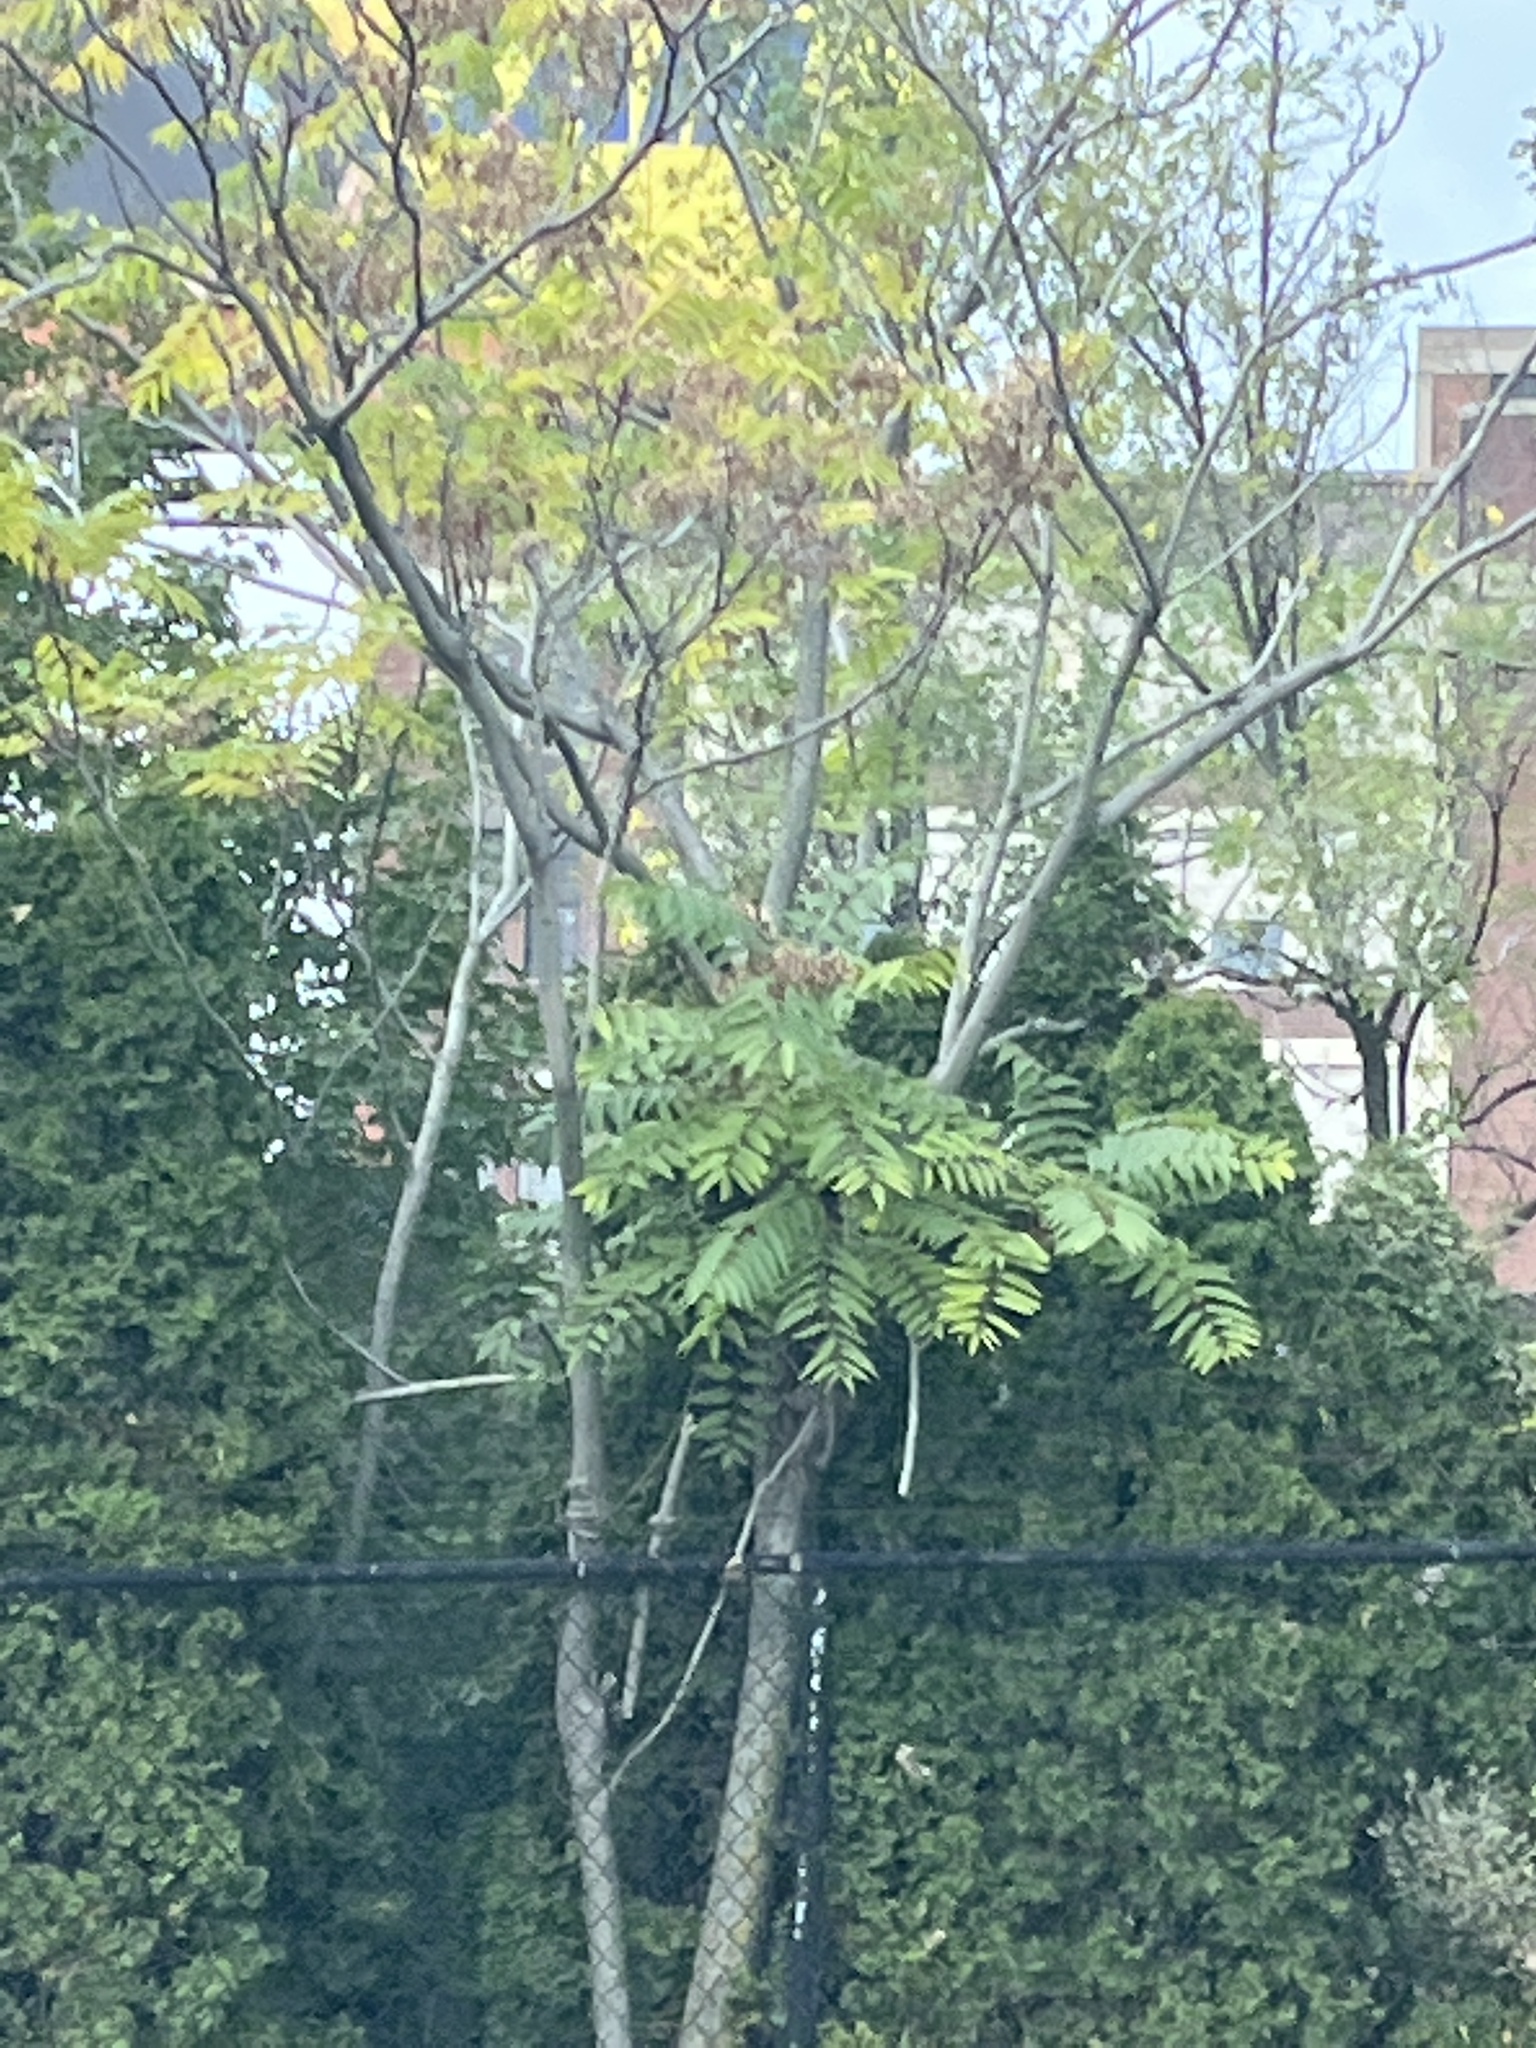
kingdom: Plantae
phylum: Tracheophyta
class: Magnoliopsida
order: Sapindales
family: Simaroubaceae
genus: Ailanthus
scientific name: Ailanthus altissima
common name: Tree-of-heaven
